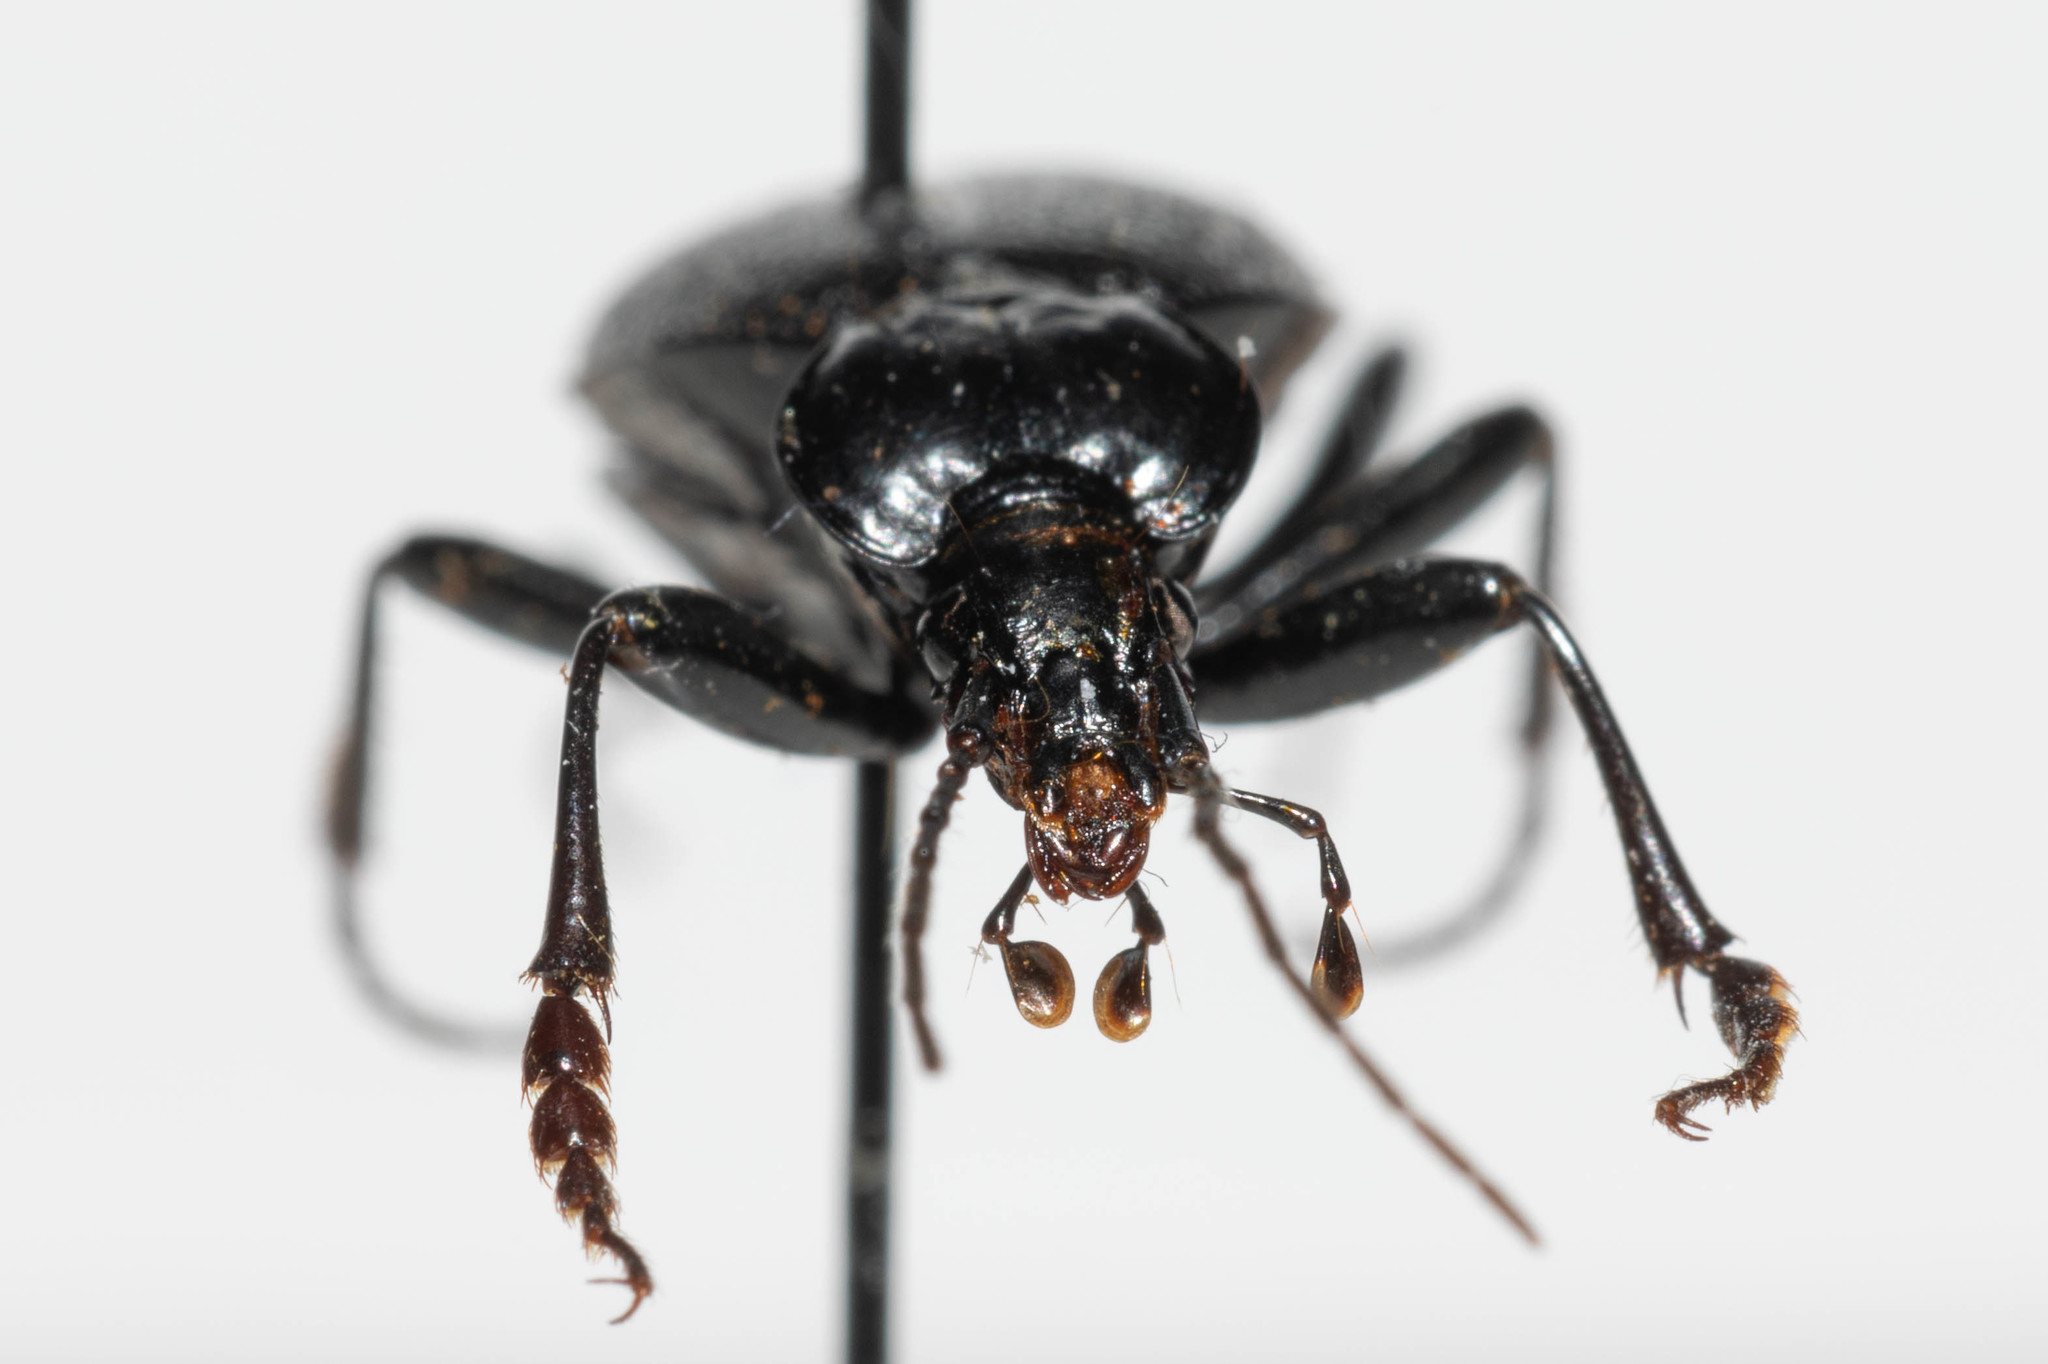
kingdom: Animalia
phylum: Arthropoda
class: Insecta
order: Coleoptera
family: Carabidae
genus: Scaphinotus
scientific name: Scaphinotus relictus
